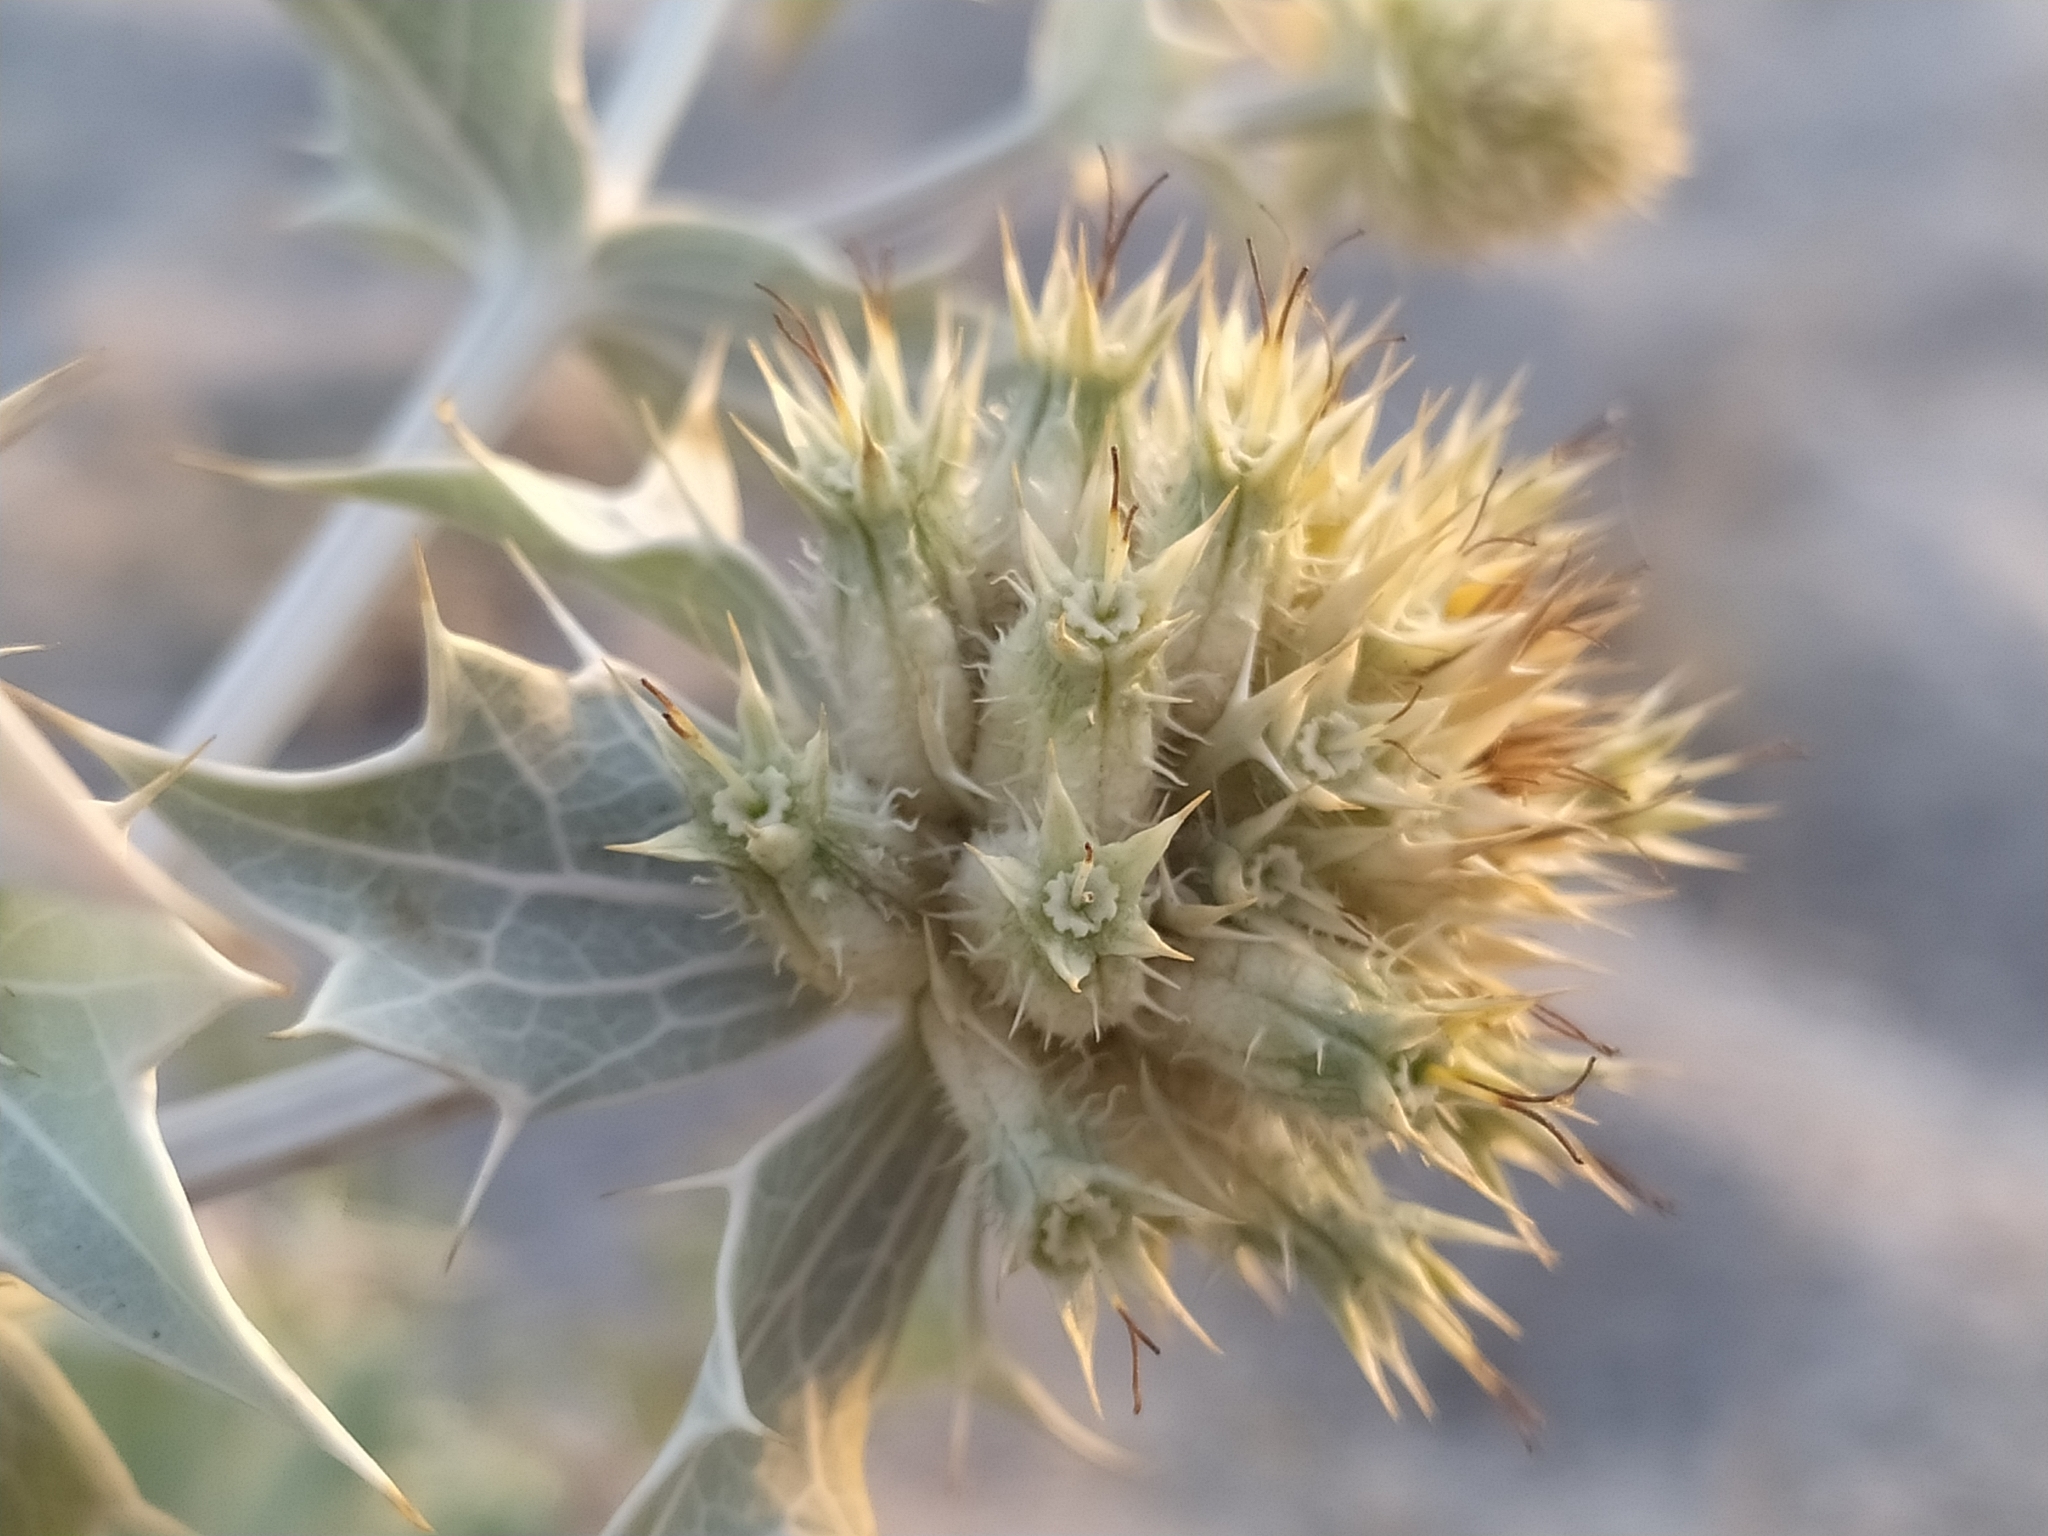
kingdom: Plantae
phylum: Tracheophyta
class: Magnoliopsida
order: Apiales
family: Apiaceae
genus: Eryngium
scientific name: Eryngium maritimum
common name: Sea-holly
